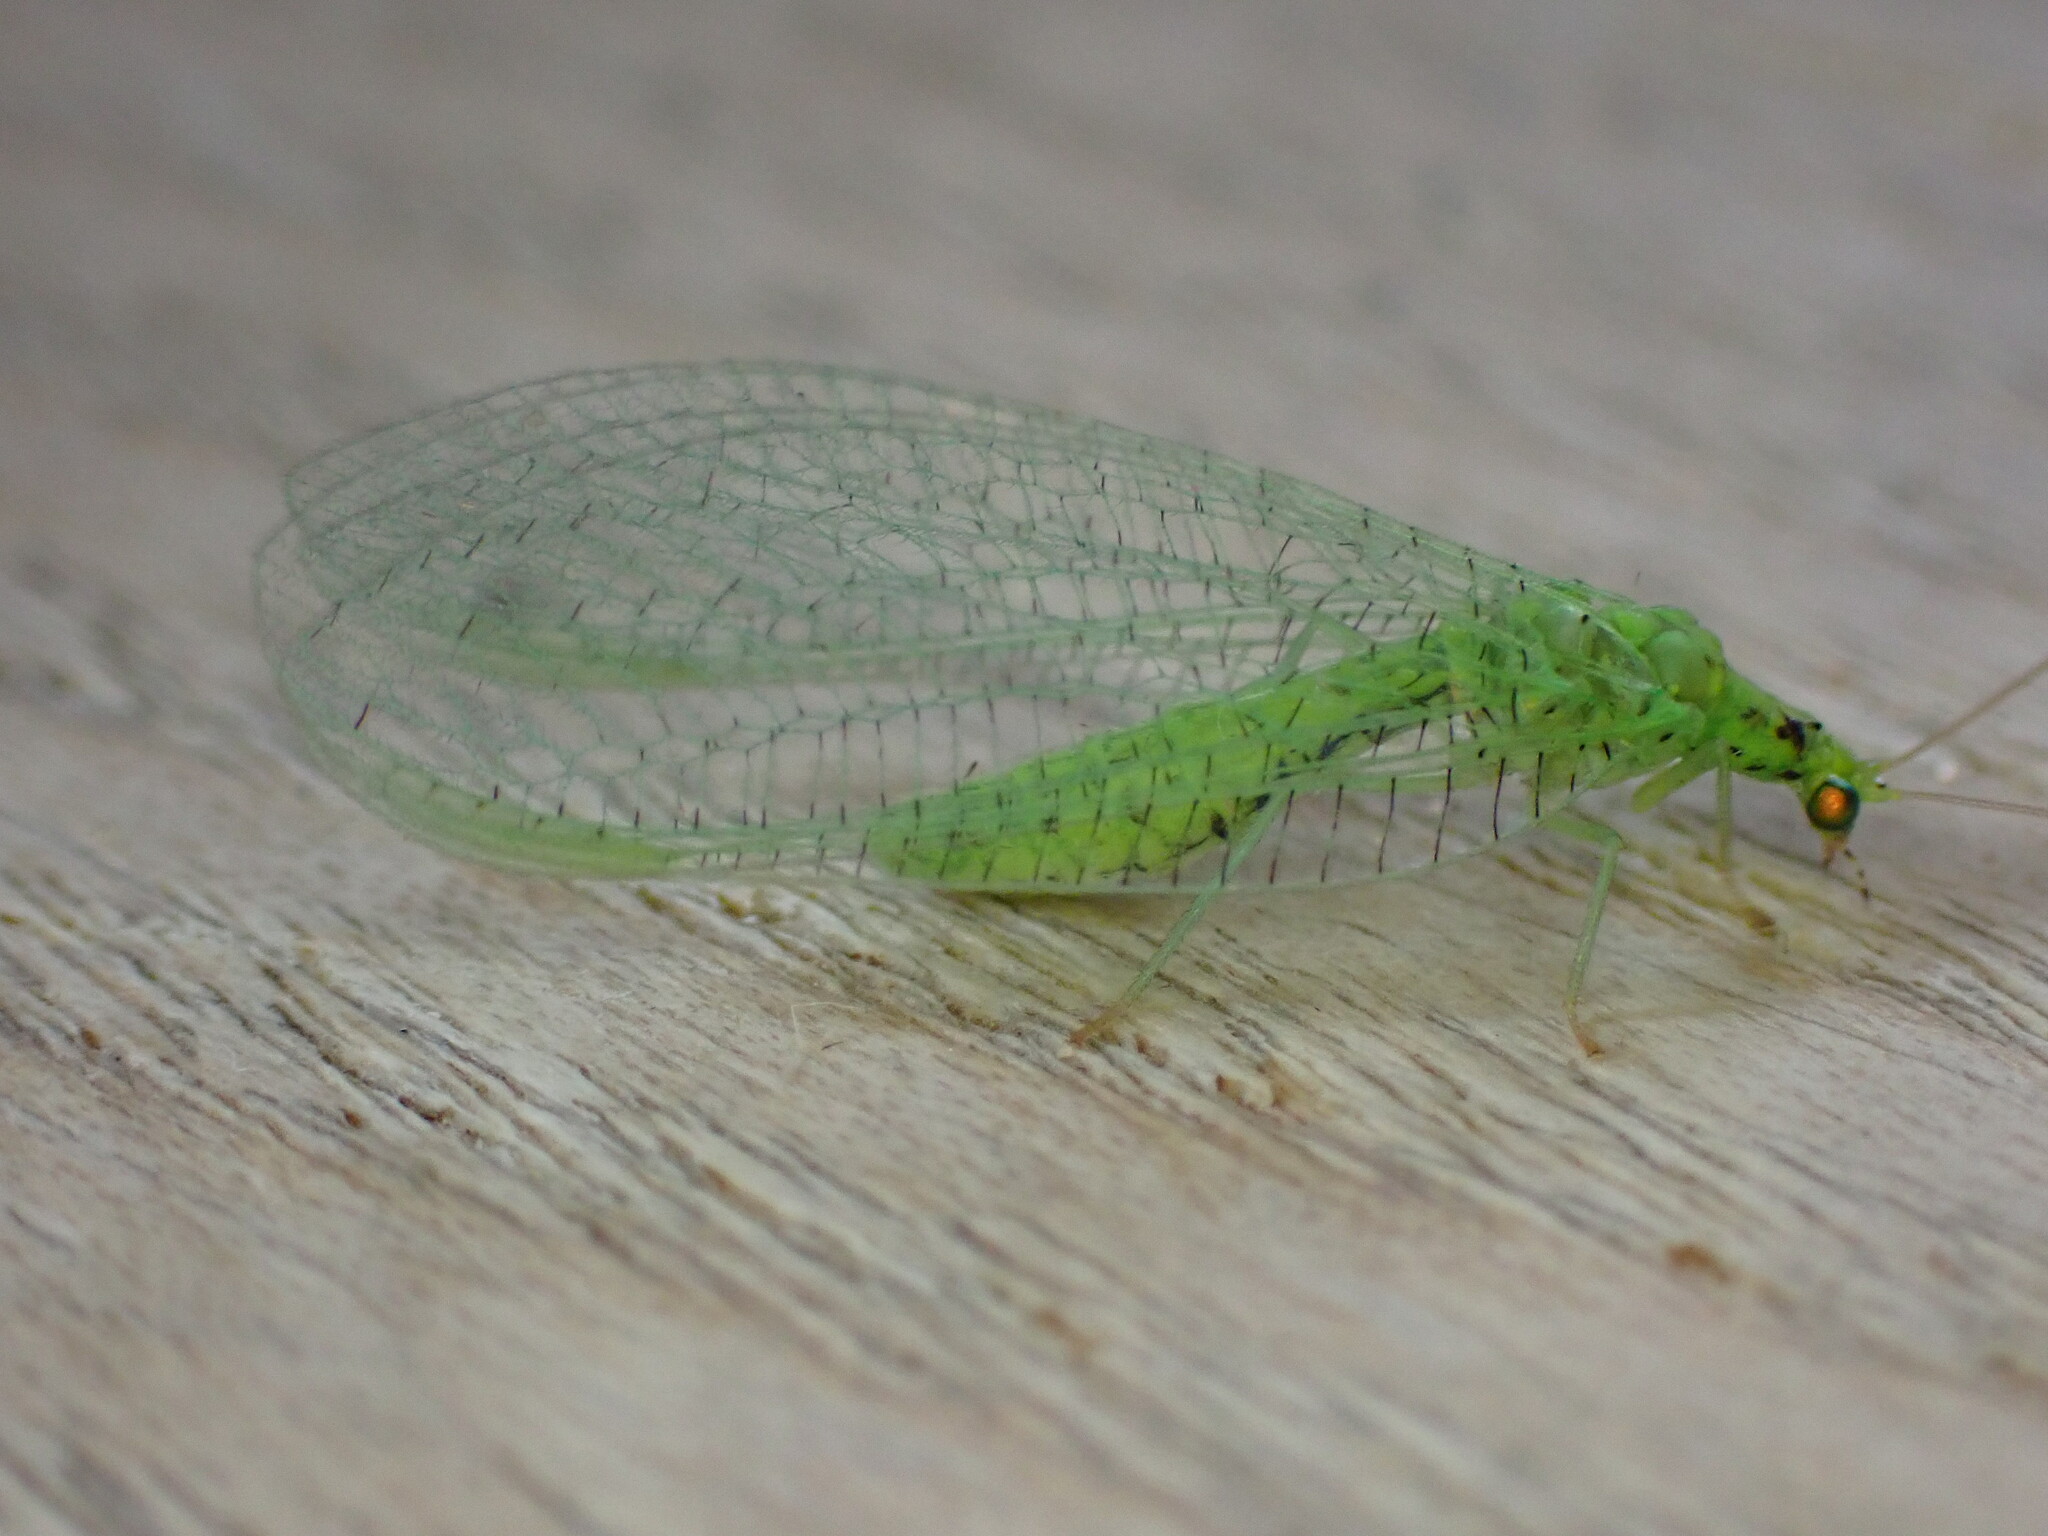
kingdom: Animalia
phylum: Arthropoda
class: Insecta
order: Neuroptera
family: Chrysopidae
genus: Pseudomallada
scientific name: Pseudomallada ventralis
